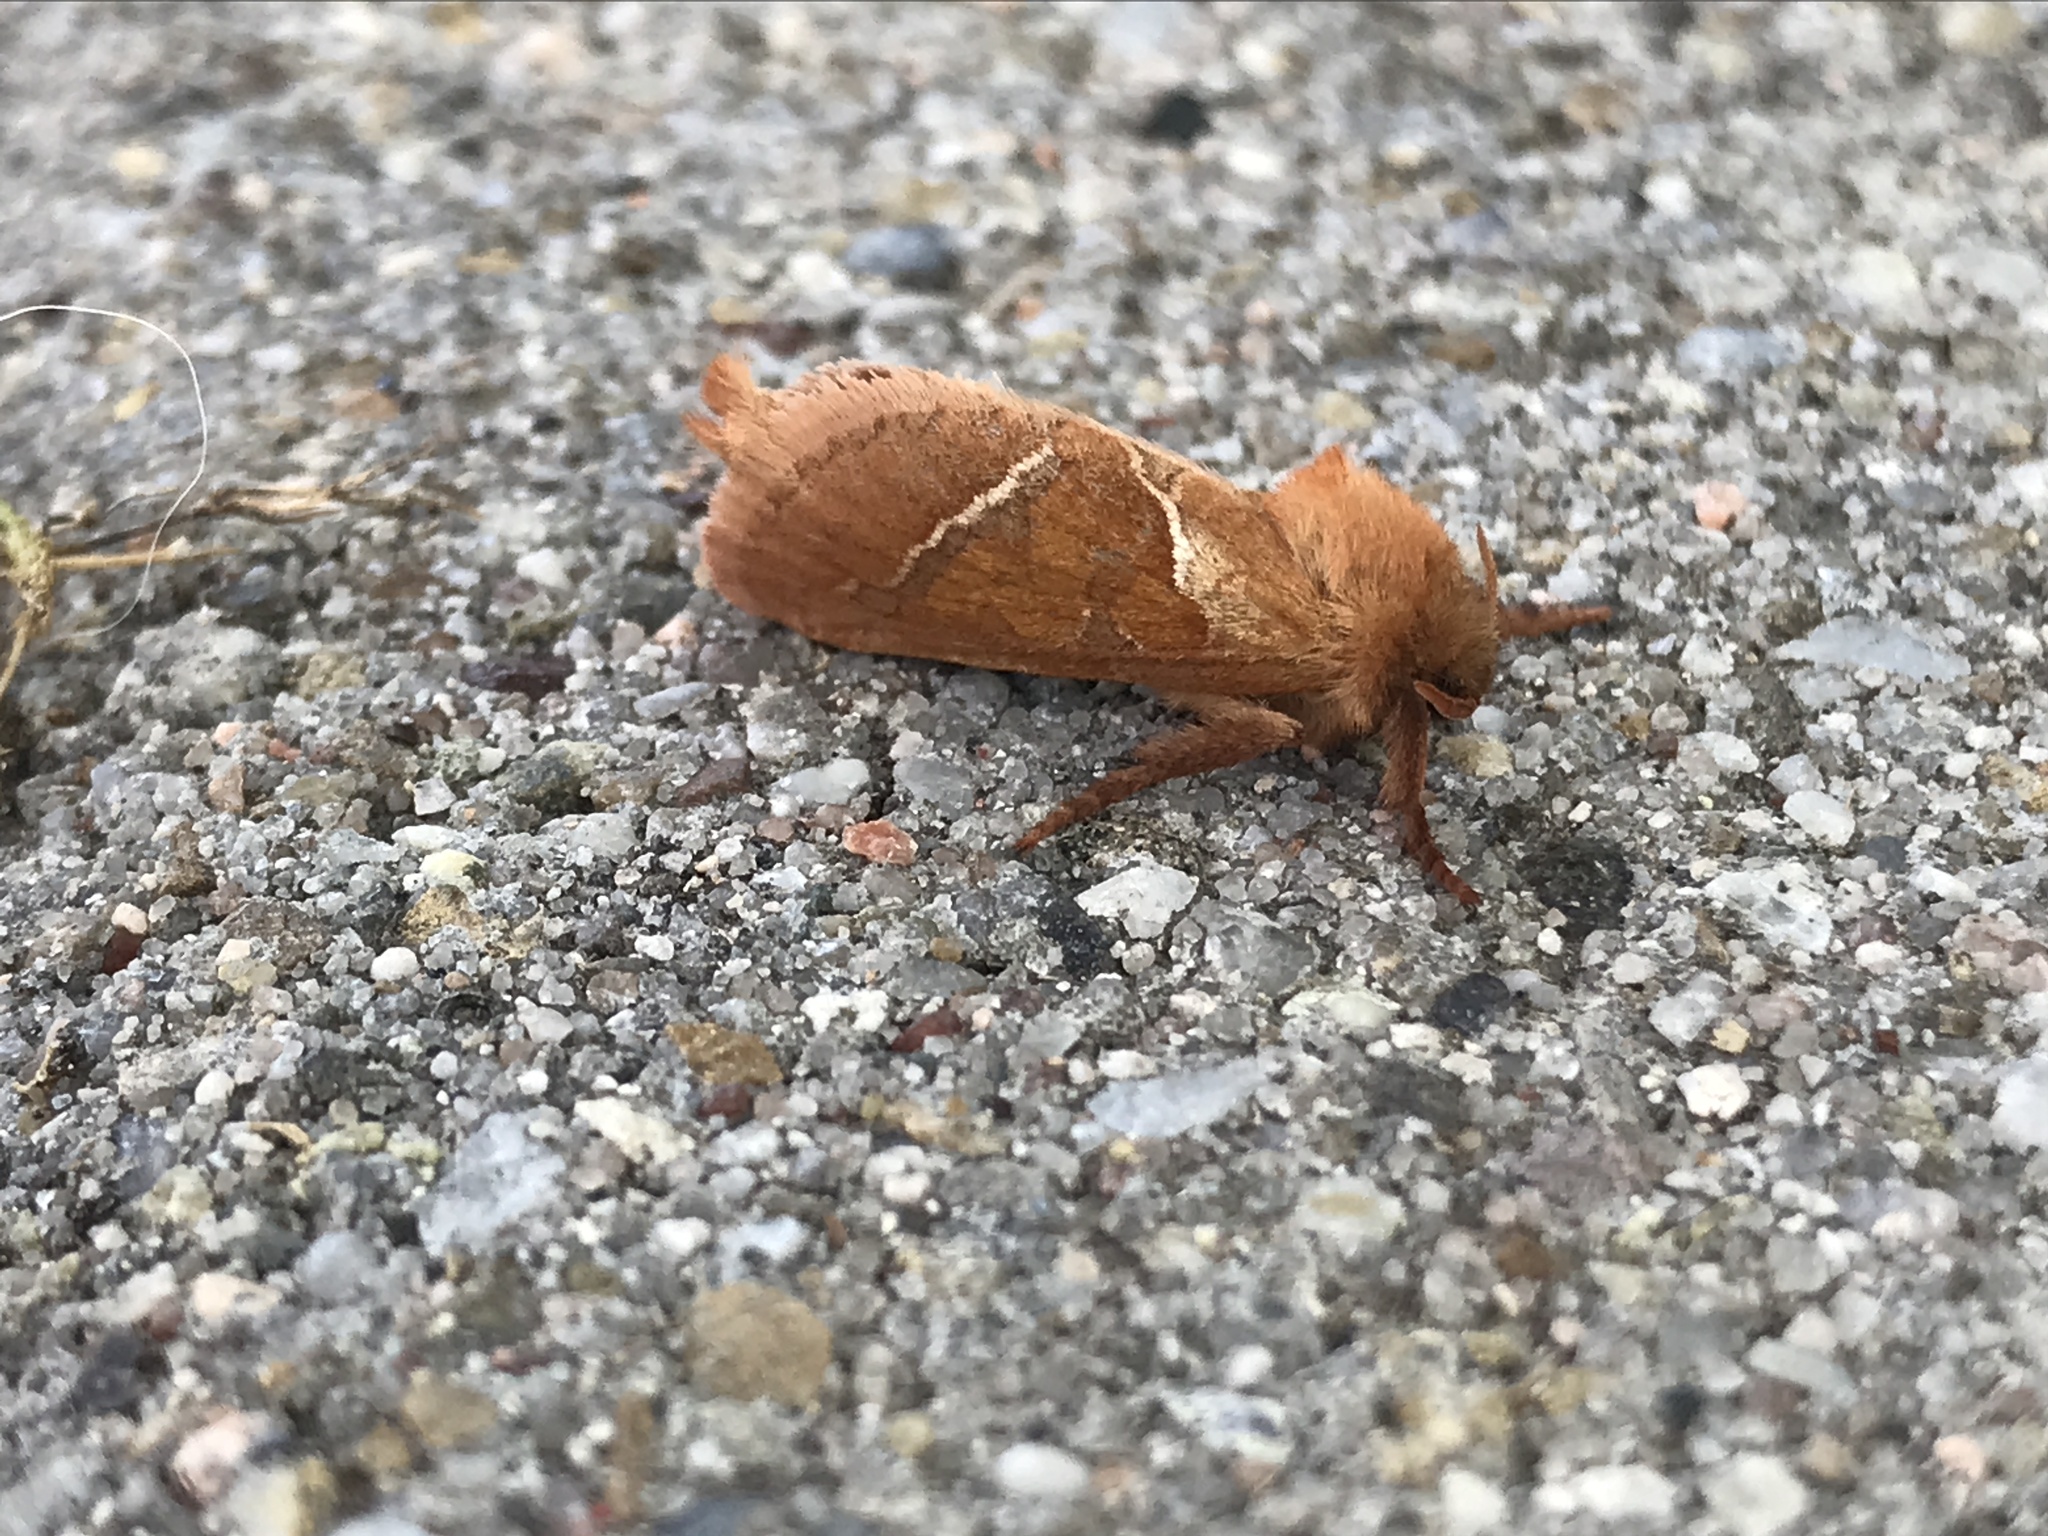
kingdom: Animalia
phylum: Arthropoda
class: Insecta
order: Lepidoptera
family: Hepialidae
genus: Triodia
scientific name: Triodia sylvina
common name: Orange swift
